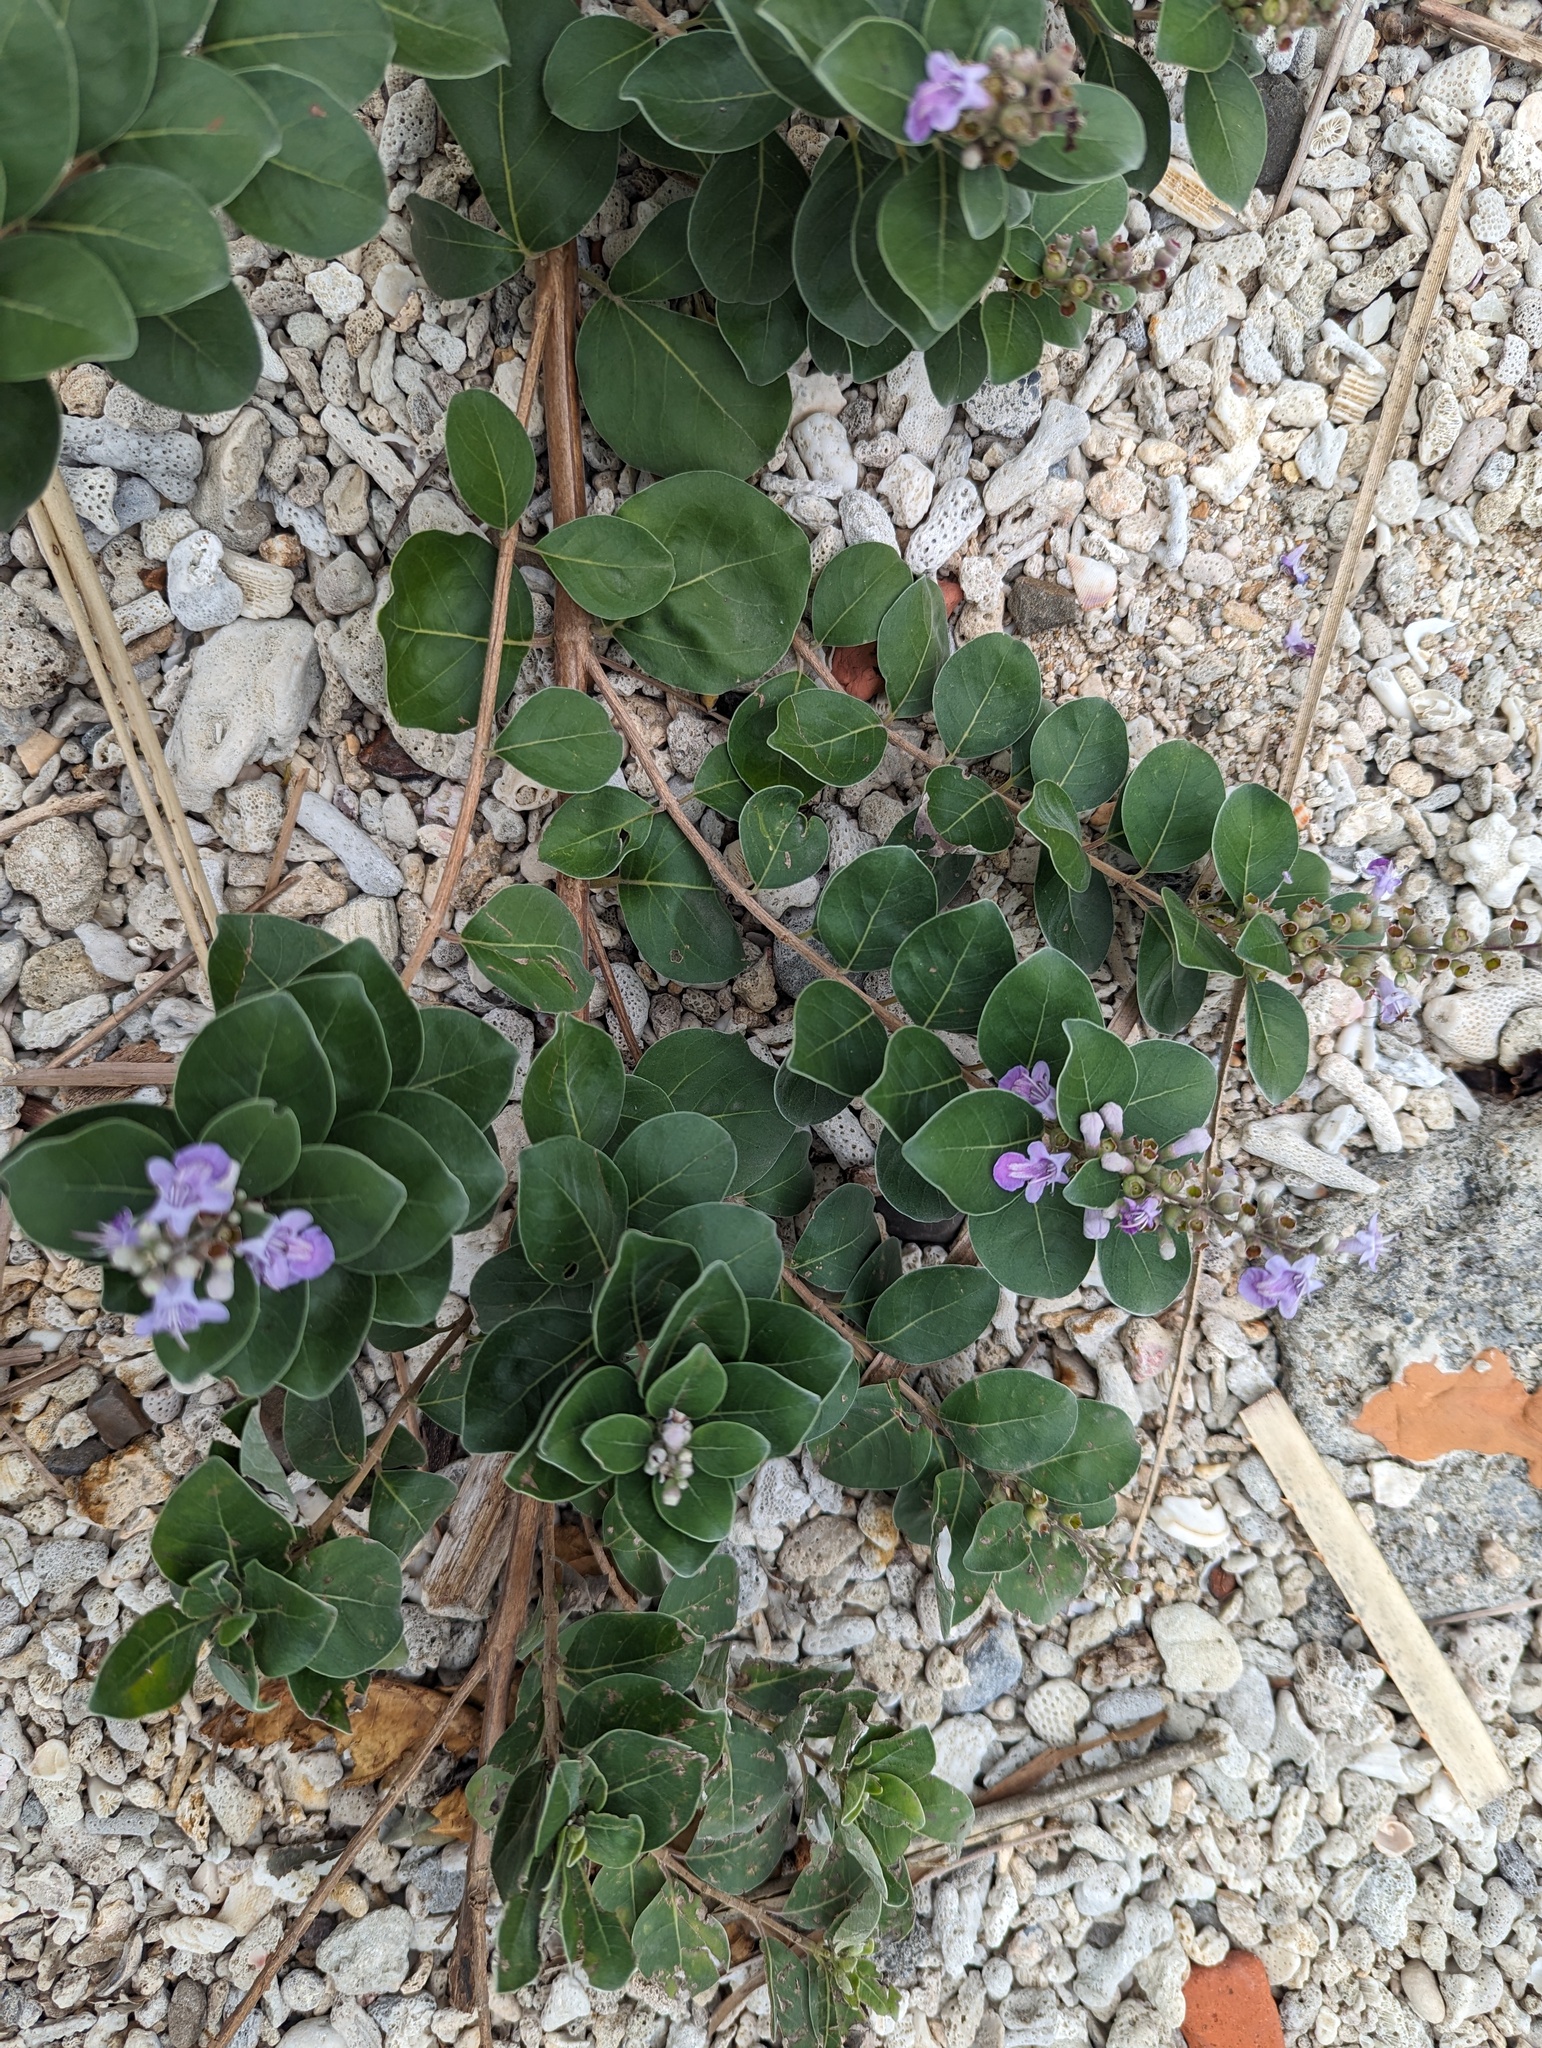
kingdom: Plantae
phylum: Tracheophyta
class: Magnoliopsida
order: Lamiales
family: Lamiaceae
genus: Vitex
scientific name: Vitex rotundifolia
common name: Beach vitex
